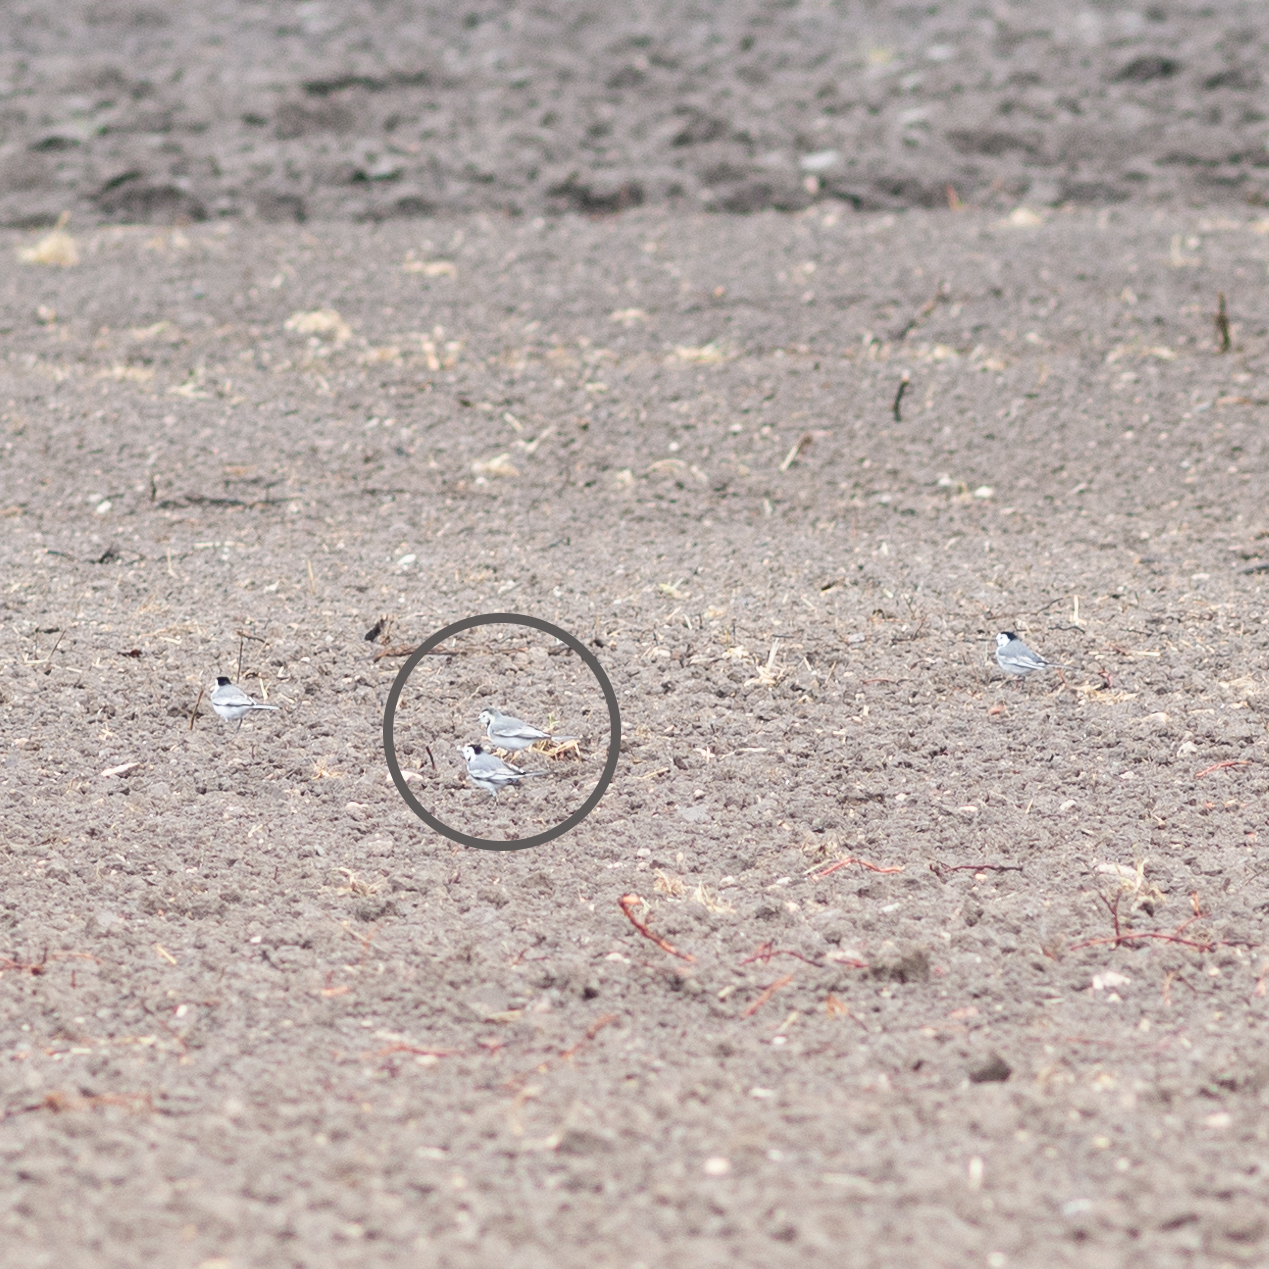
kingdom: Animalia
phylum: Chordata
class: Aves
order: Passeriformes
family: Motacillidae
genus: Motacilla
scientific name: Motacilla alba
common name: White wagtail
